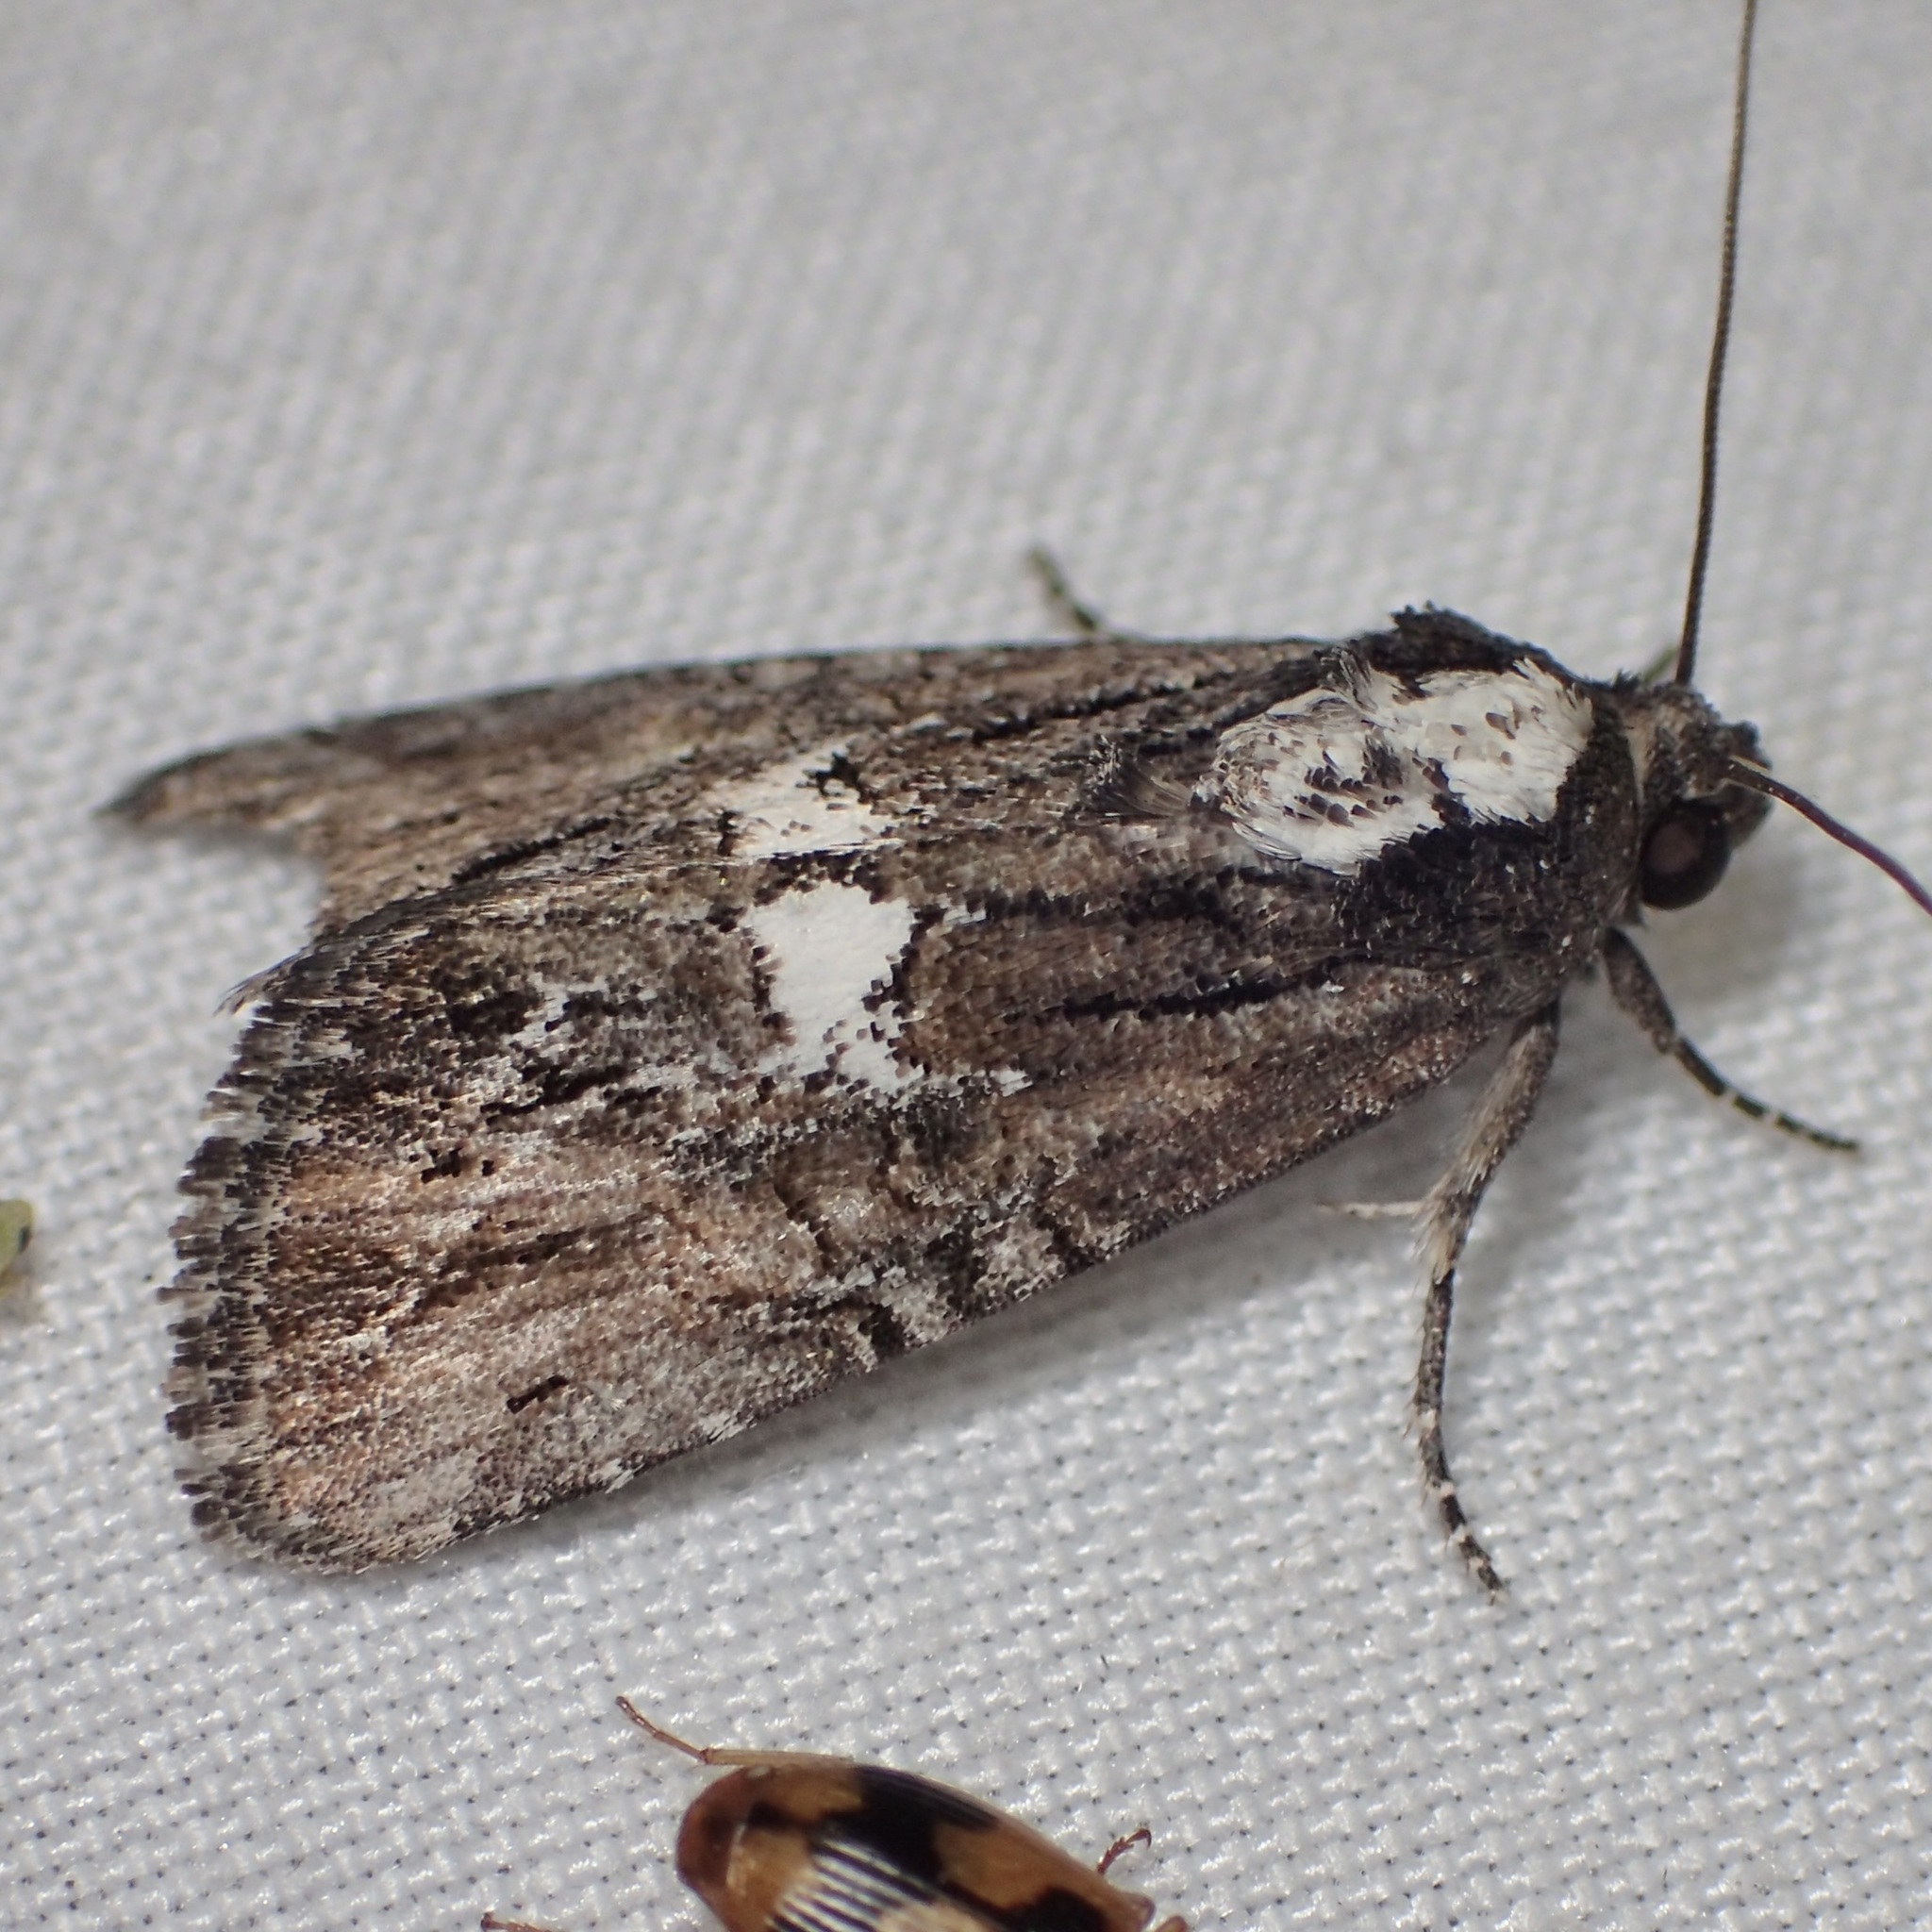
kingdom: Animalia
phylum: Arthropoda
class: Insecta
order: Lepidoptera
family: Noctuidae
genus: Bryolymnia
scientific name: Bryolymnia semifascia
